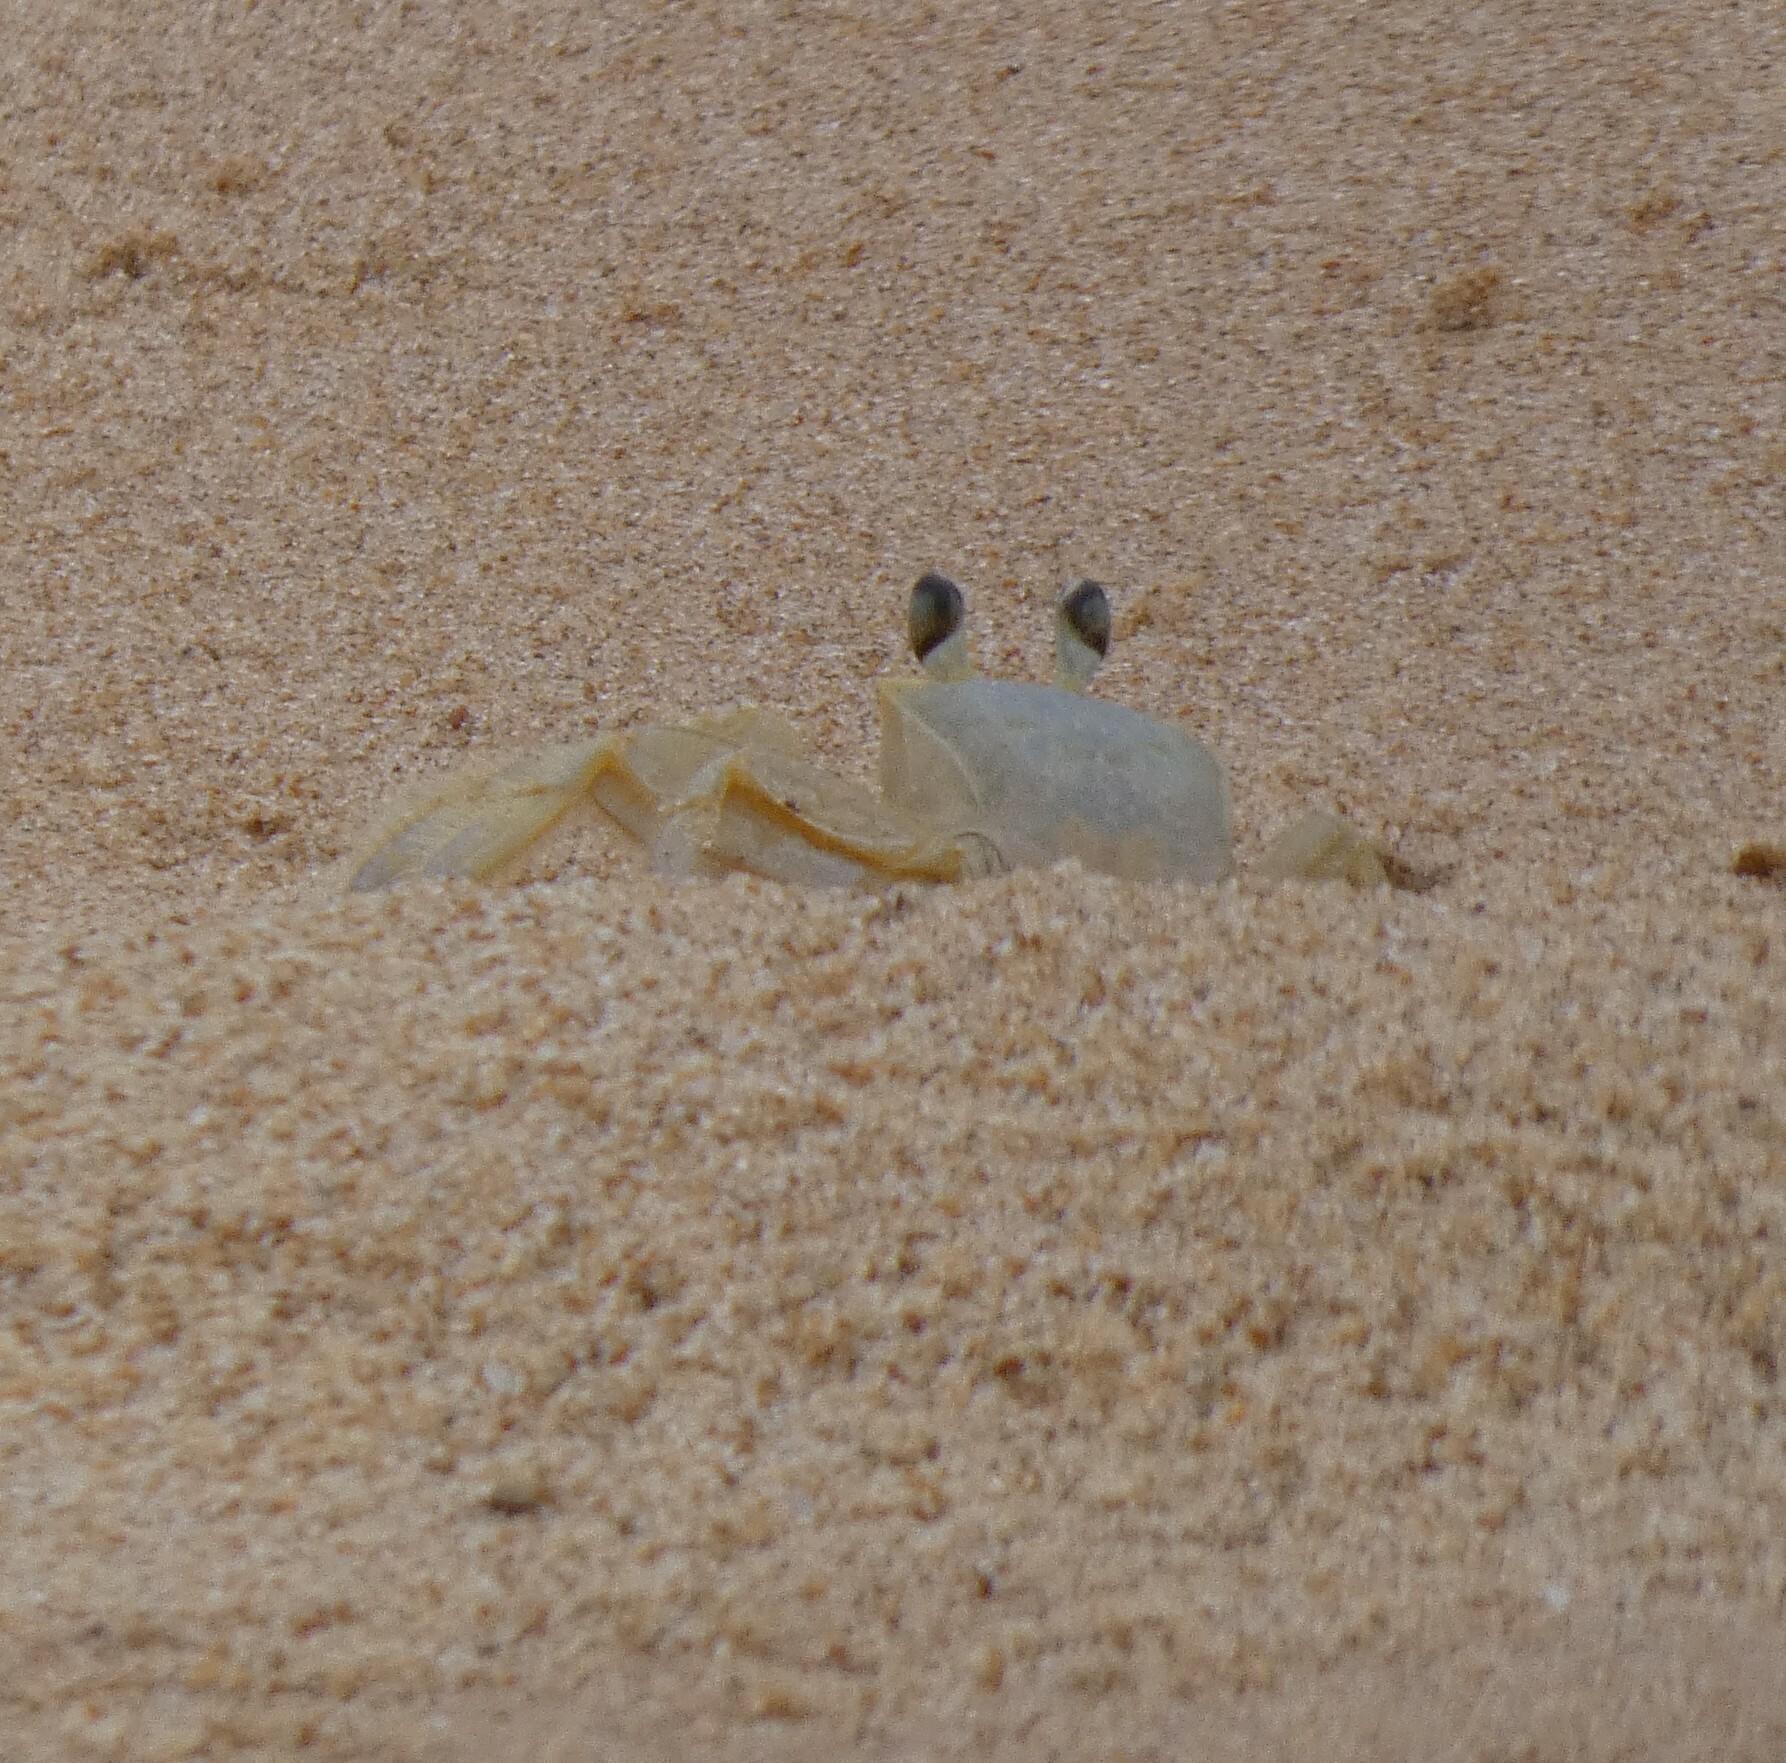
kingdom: Animalia
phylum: Arthropoda
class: Malacostraca
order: Decapoda
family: Ocypodidae
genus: Ocypode
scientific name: Ocypode quadrata
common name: Ghost crab
